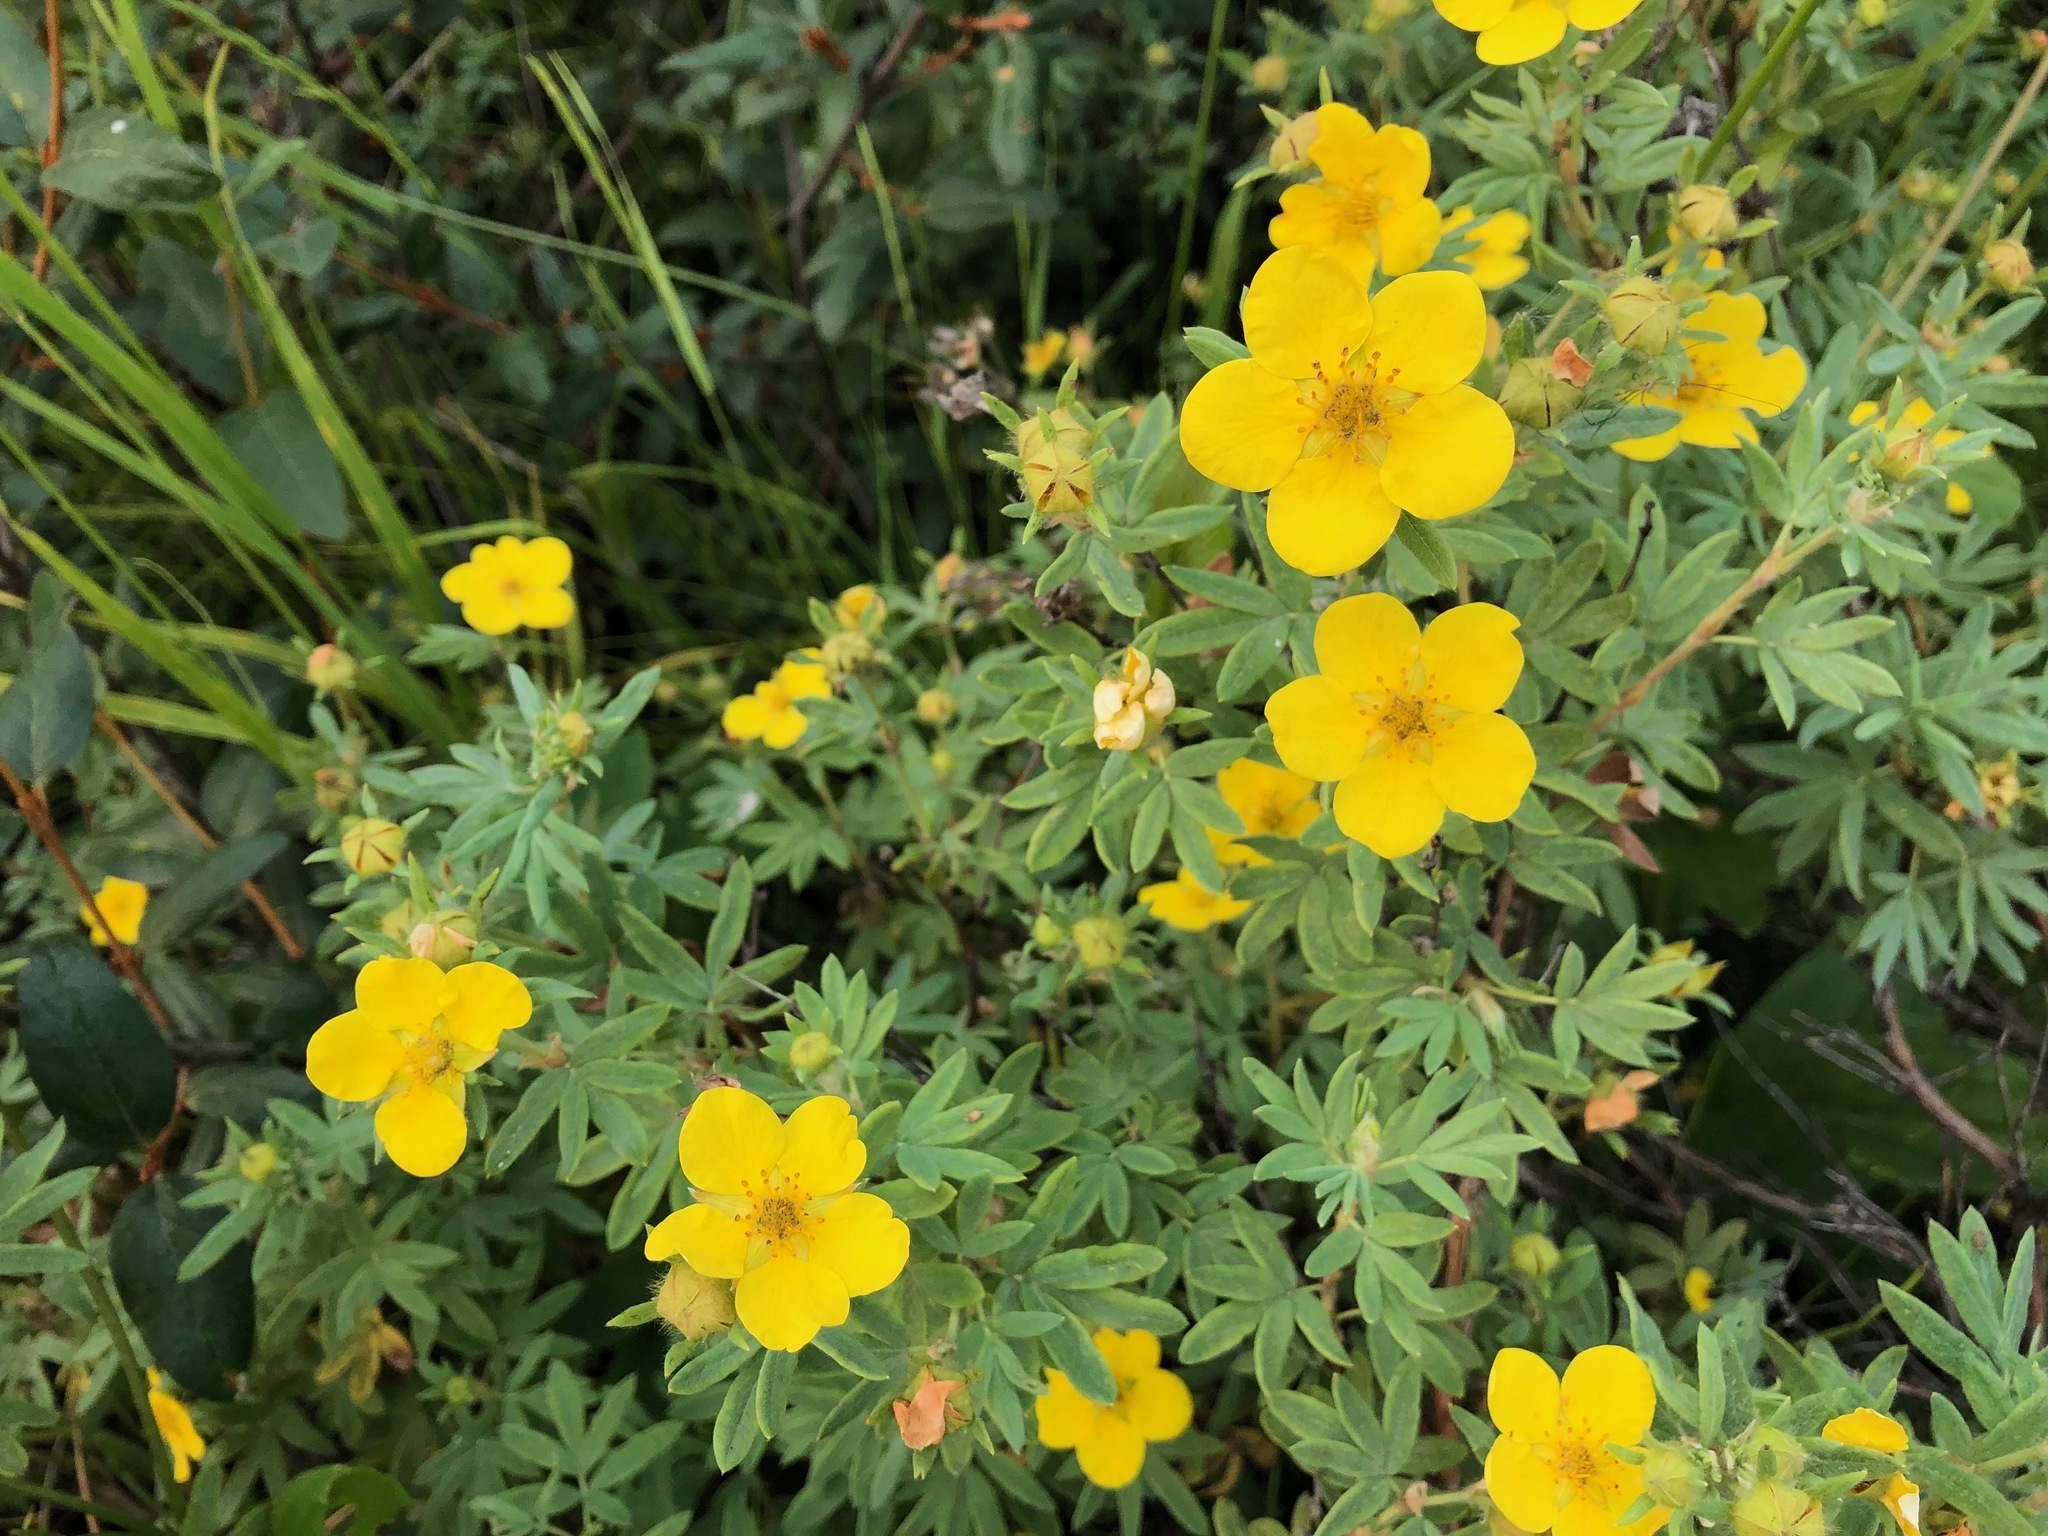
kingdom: Plantae
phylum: Tracheophyta
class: Magnoliopsida
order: Rosales
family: Rosaceae
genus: Dasiphora
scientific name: Dasiphora fruticosa
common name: Shrubby cinquefoil
